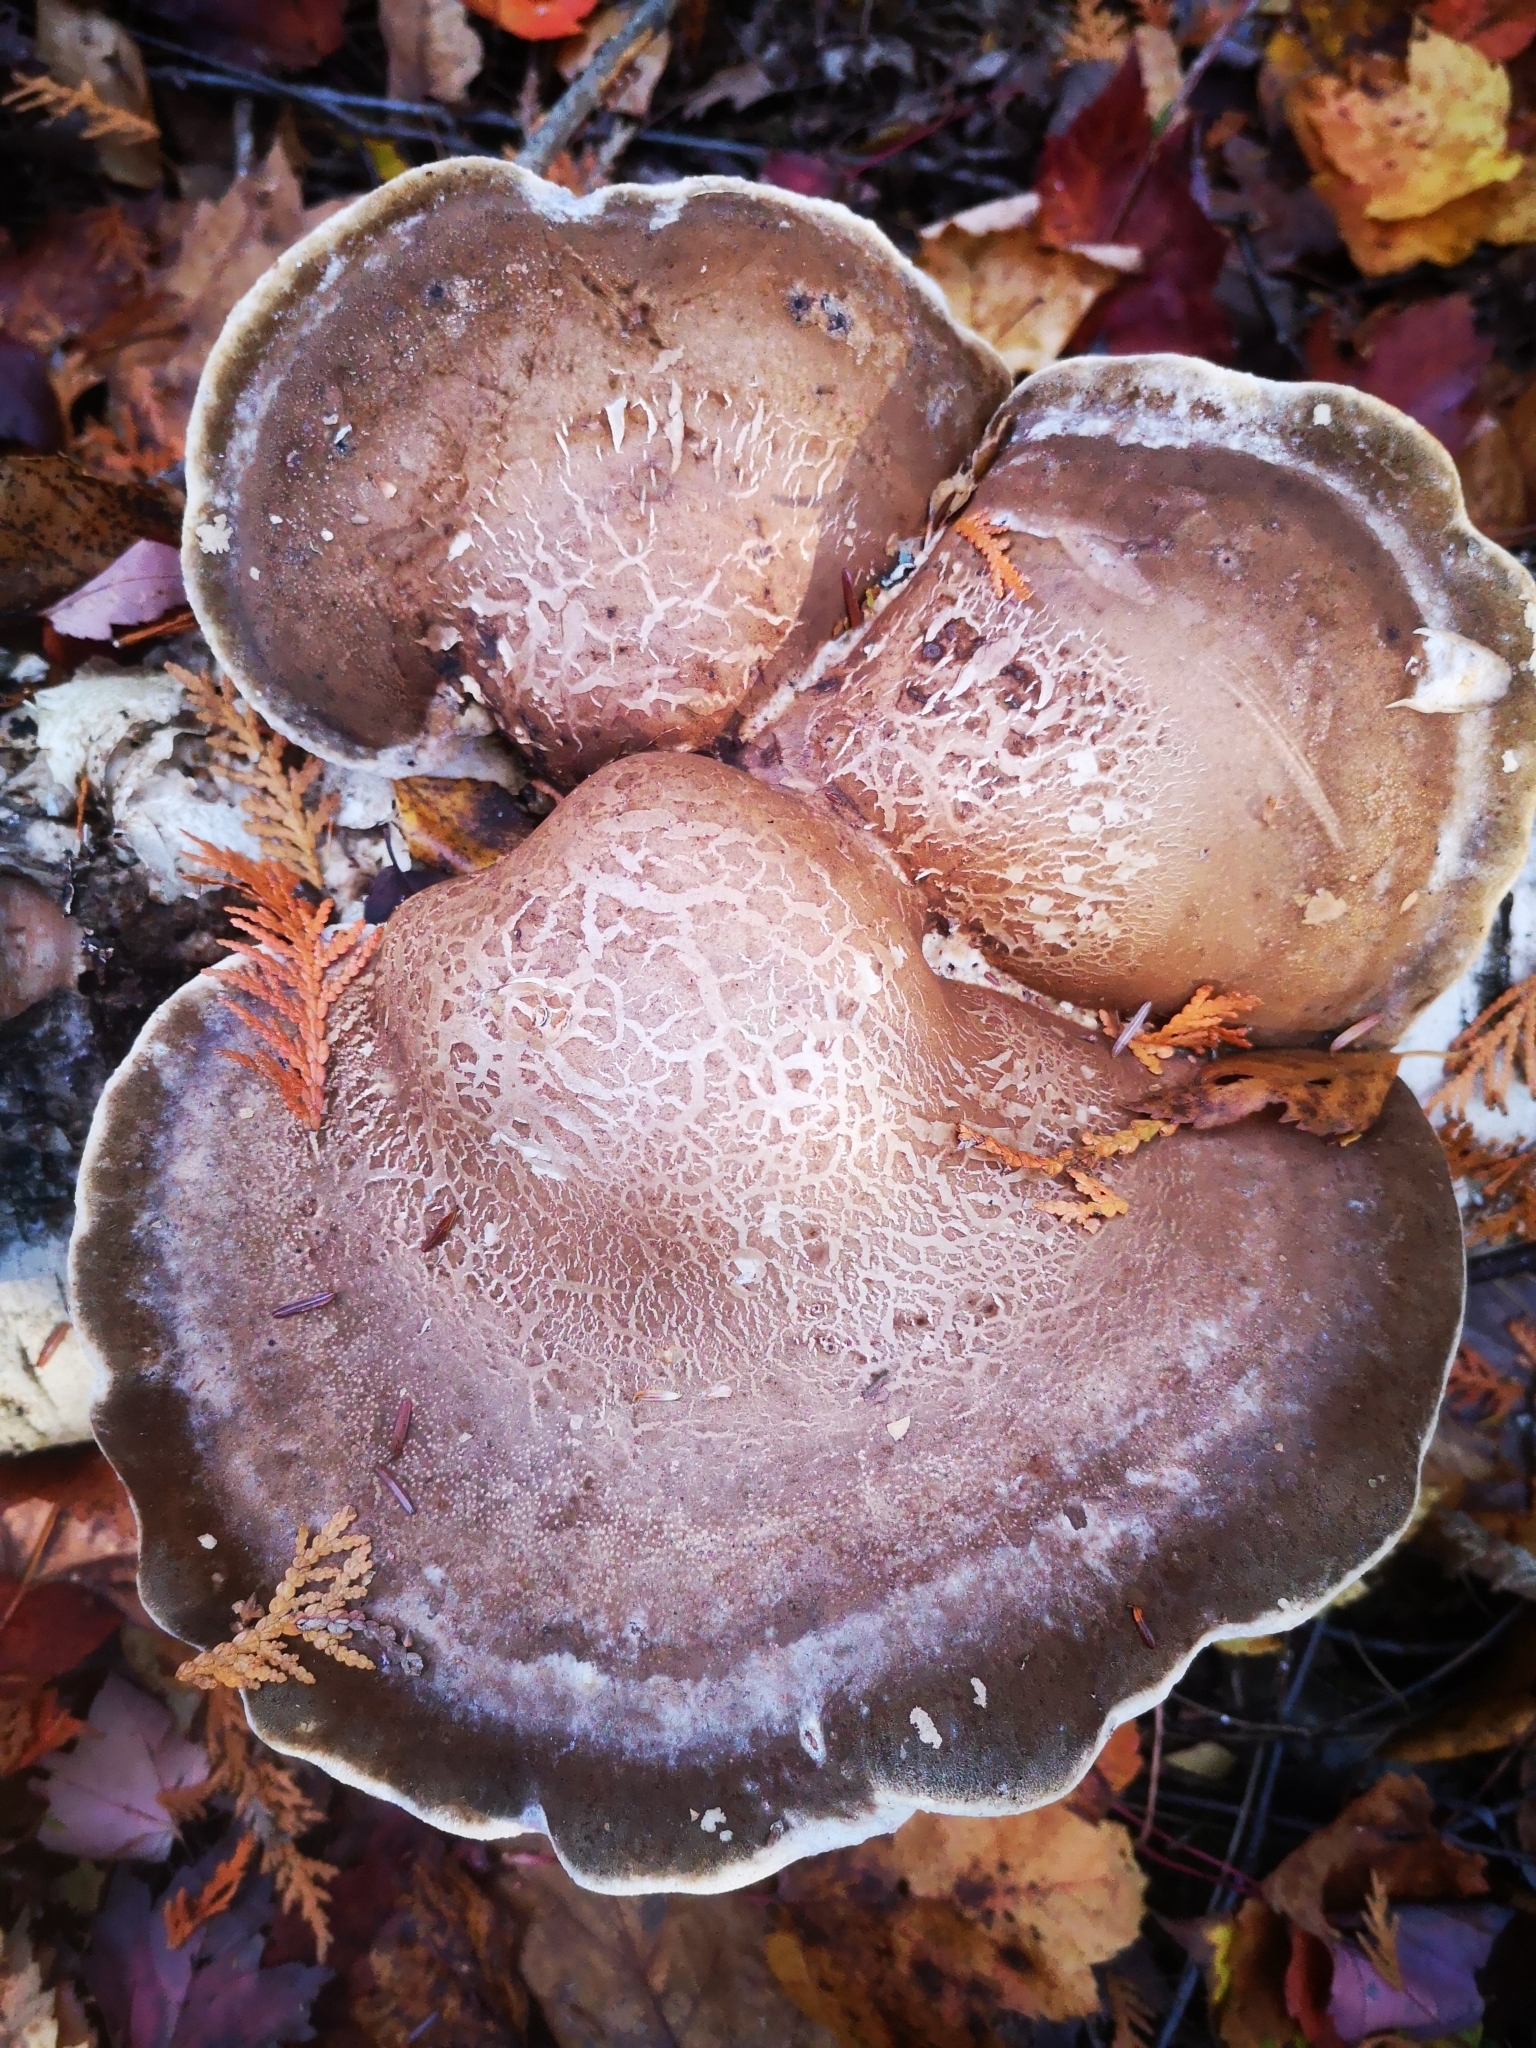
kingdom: Fungi
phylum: Basidiomycota
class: Agaricomycetes
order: Polyporales
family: Fomitopsidaceae
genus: Fomitopsis
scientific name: Fomitopsis betulina
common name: Birch polypore
